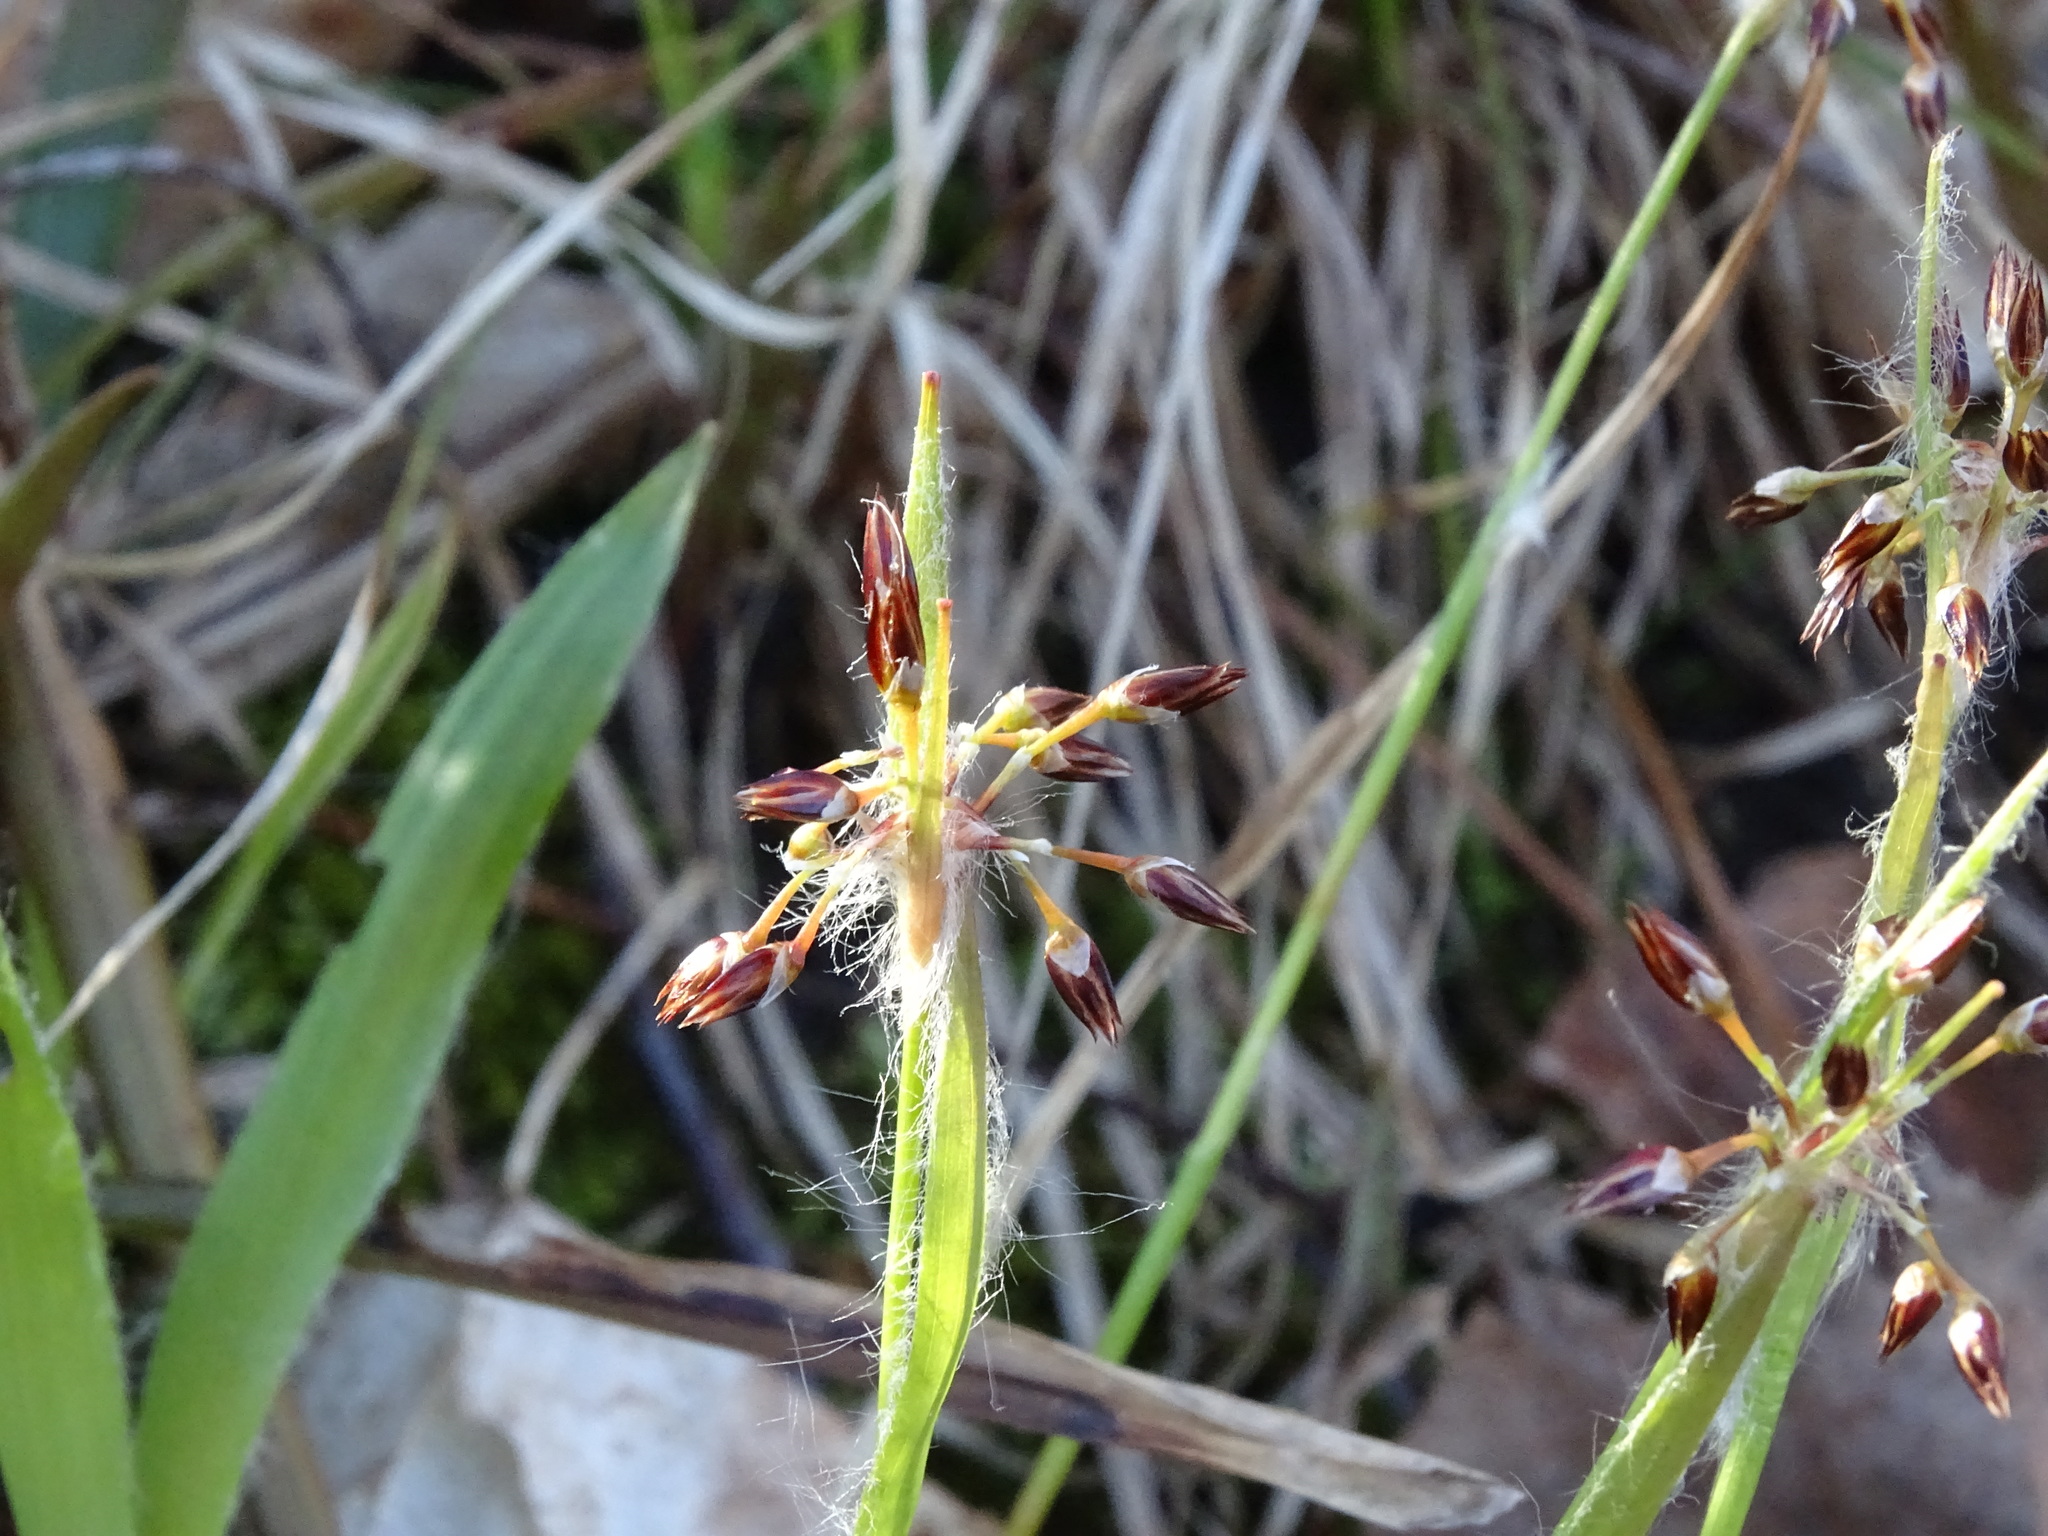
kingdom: Plantae
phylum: Tracheophyta
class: Liliopsida
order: Poales
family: Juncaceae
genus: Luzula
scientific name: Luzula acuminata
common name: Hairy woodrush
